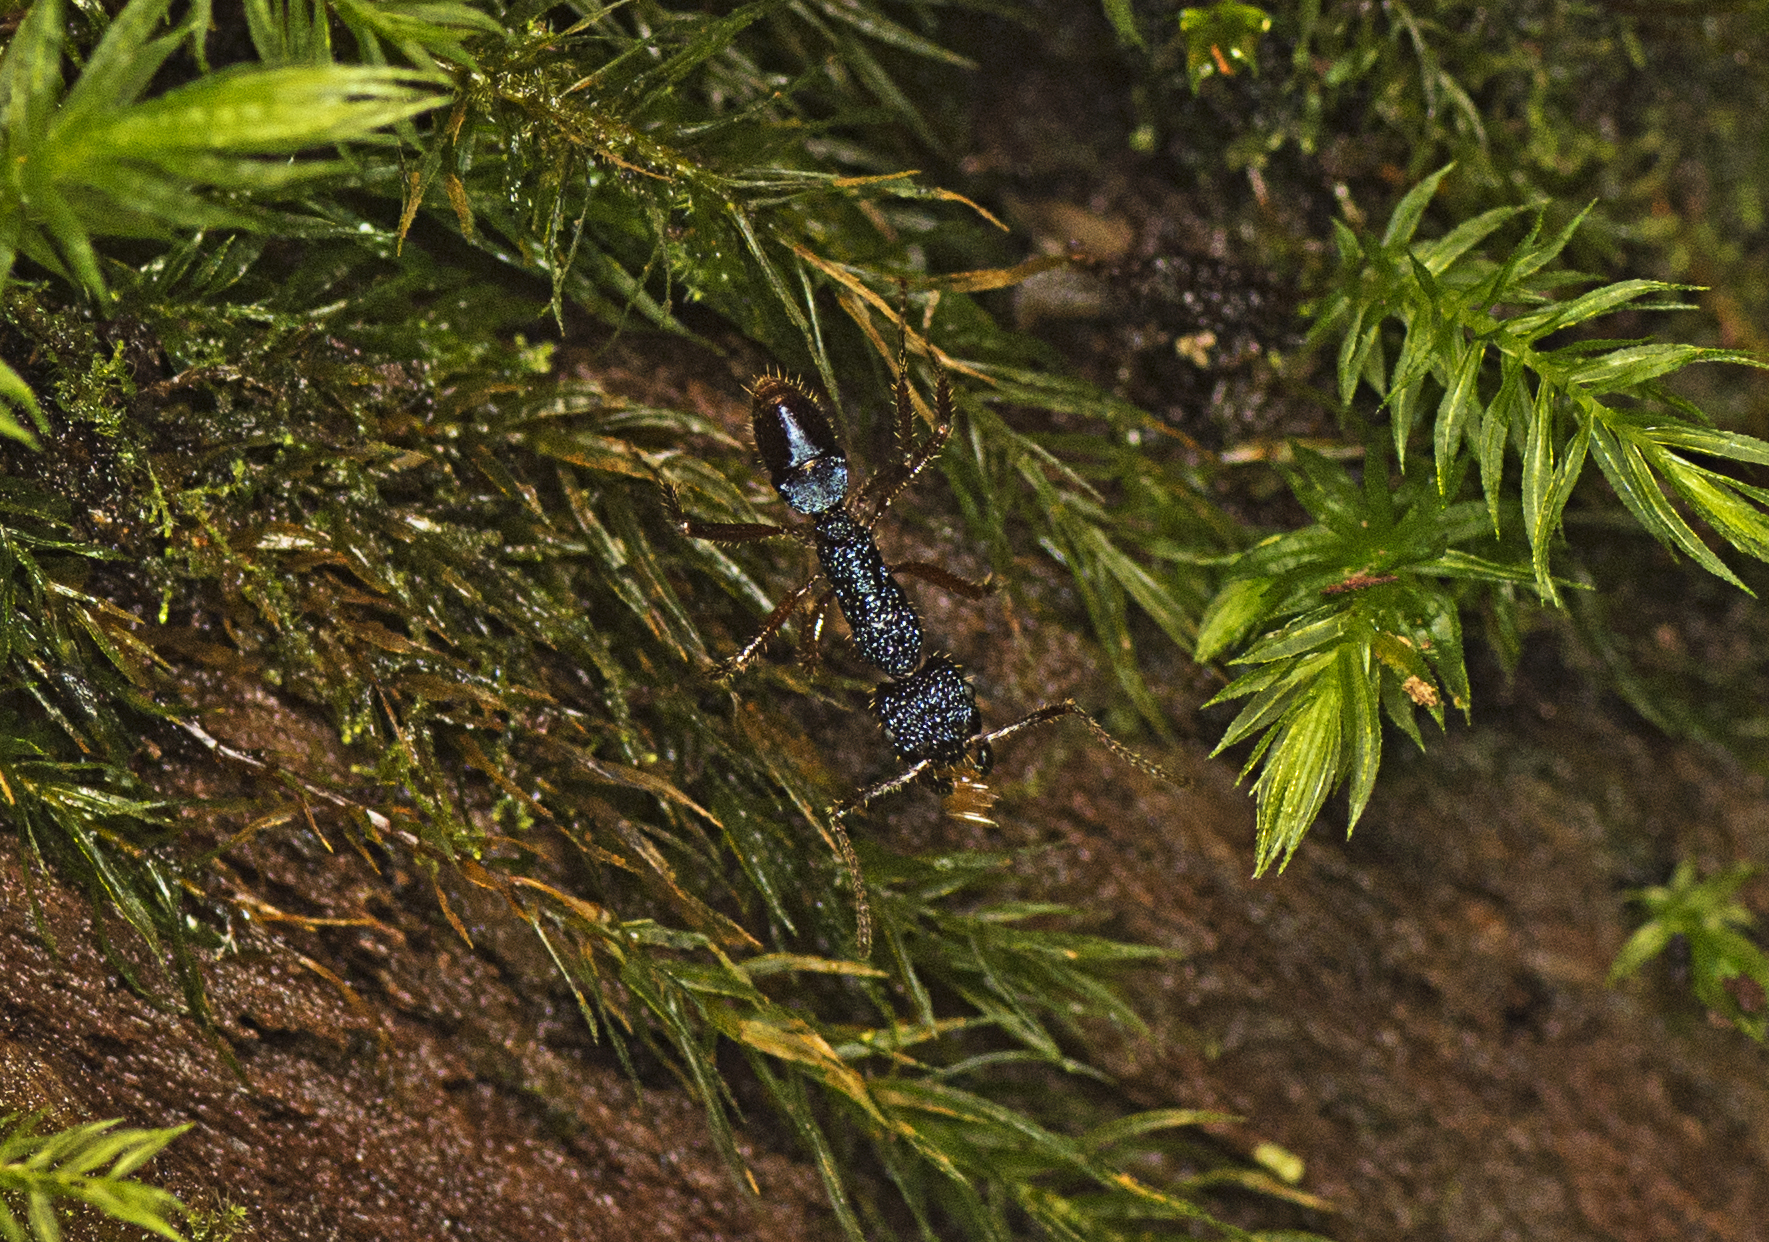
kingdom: Animalia
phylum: Arthropoda
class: Insecta
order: Hymenoptera
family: Formicidae
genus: Rhytidoponera
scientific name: Rhytidoponera chalybaea
